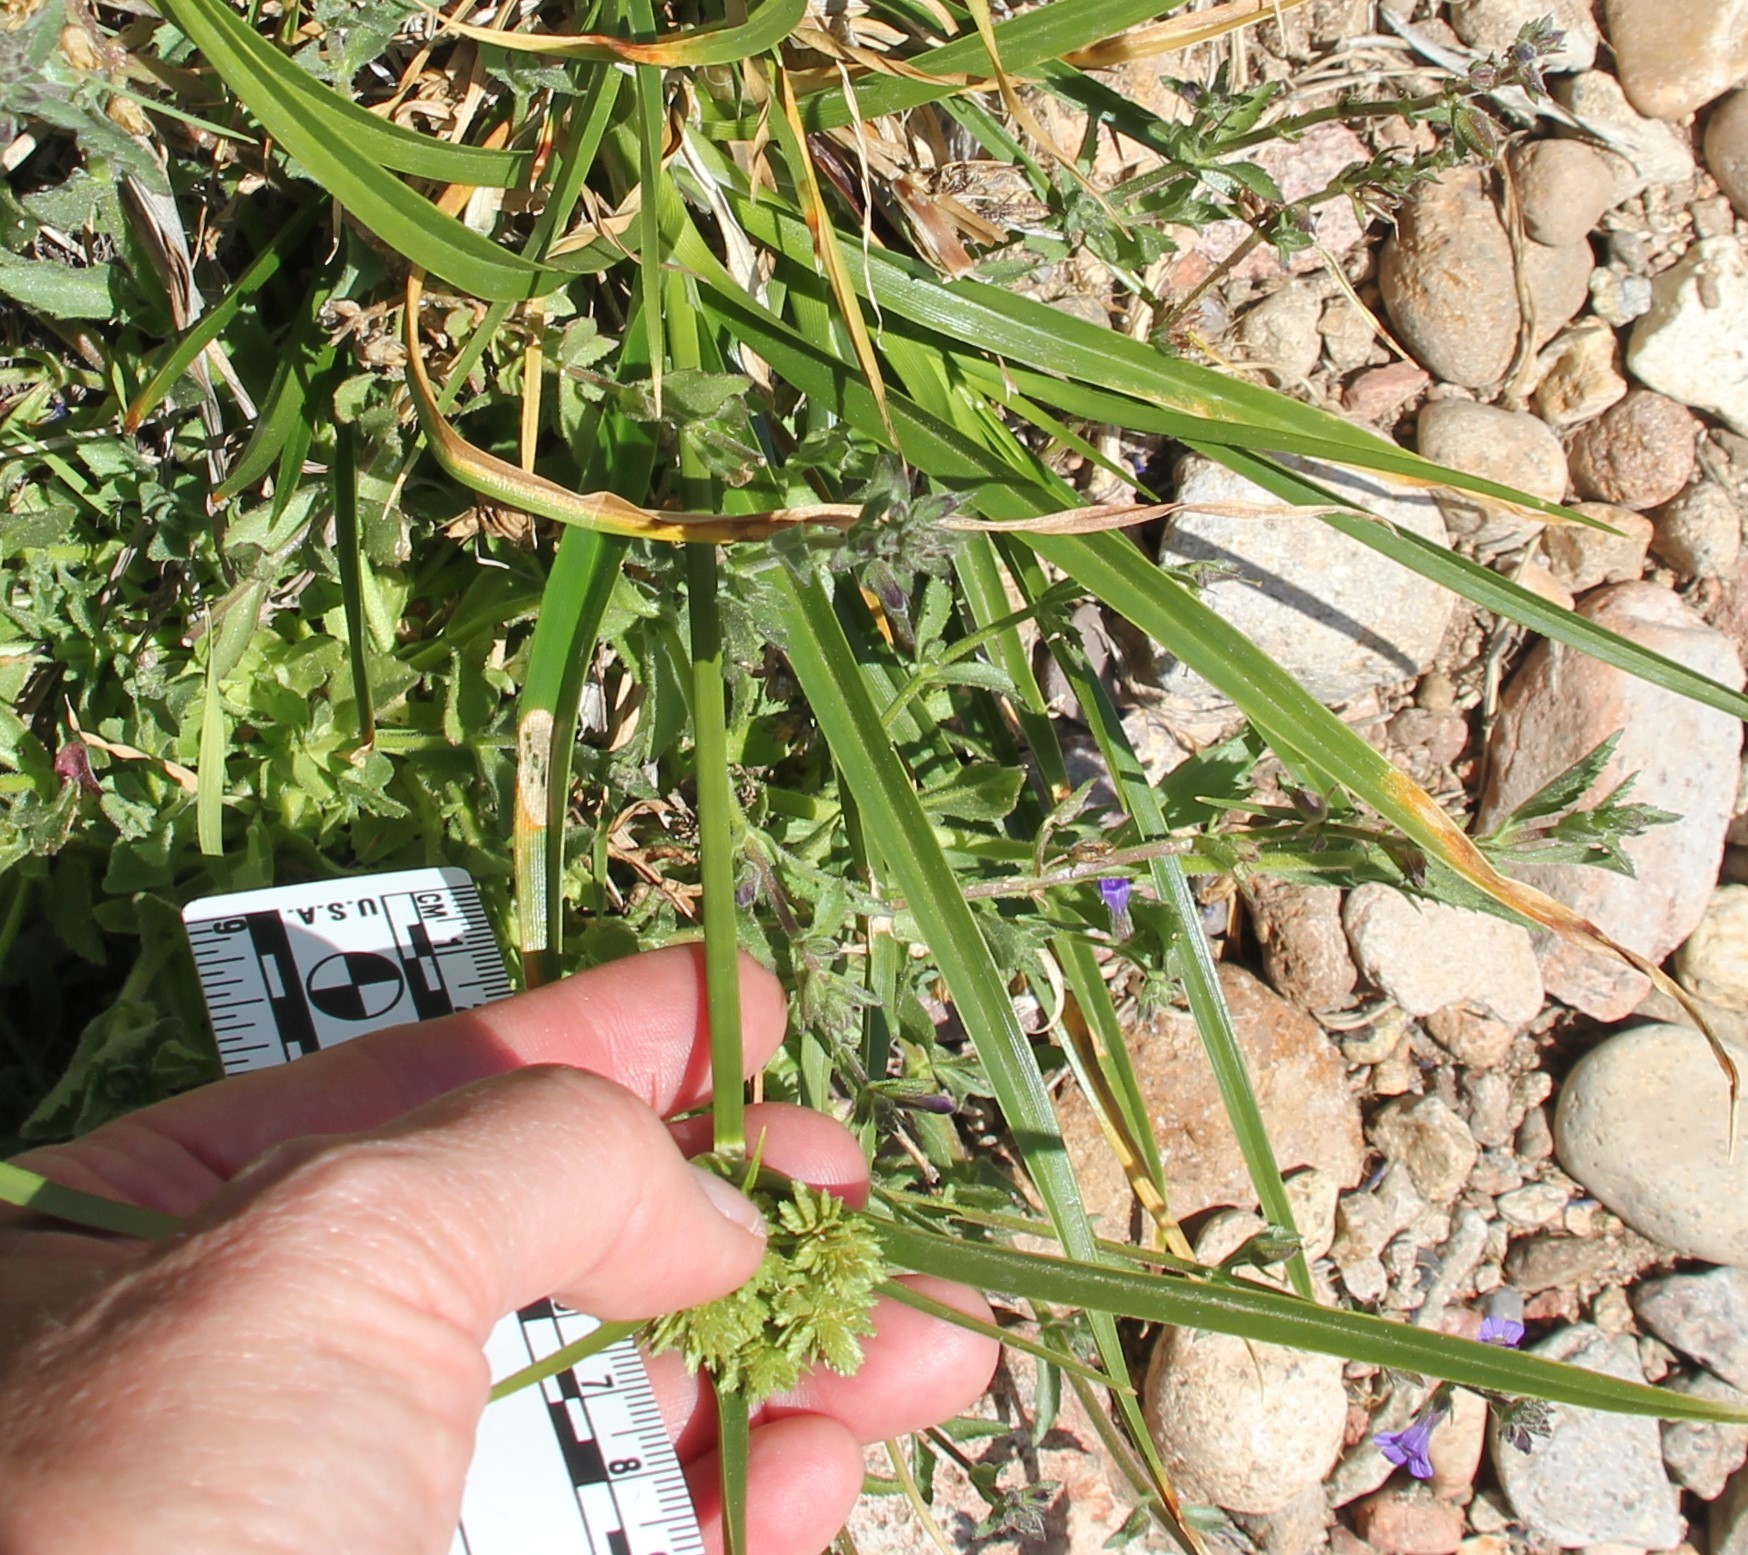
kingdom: Plantae
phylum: Tracheophyta
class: Liliopsida
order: Poales
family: Cyperaceae
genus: Cyperus
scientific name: Cyperus eragrostis
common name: Tall flatsedge
